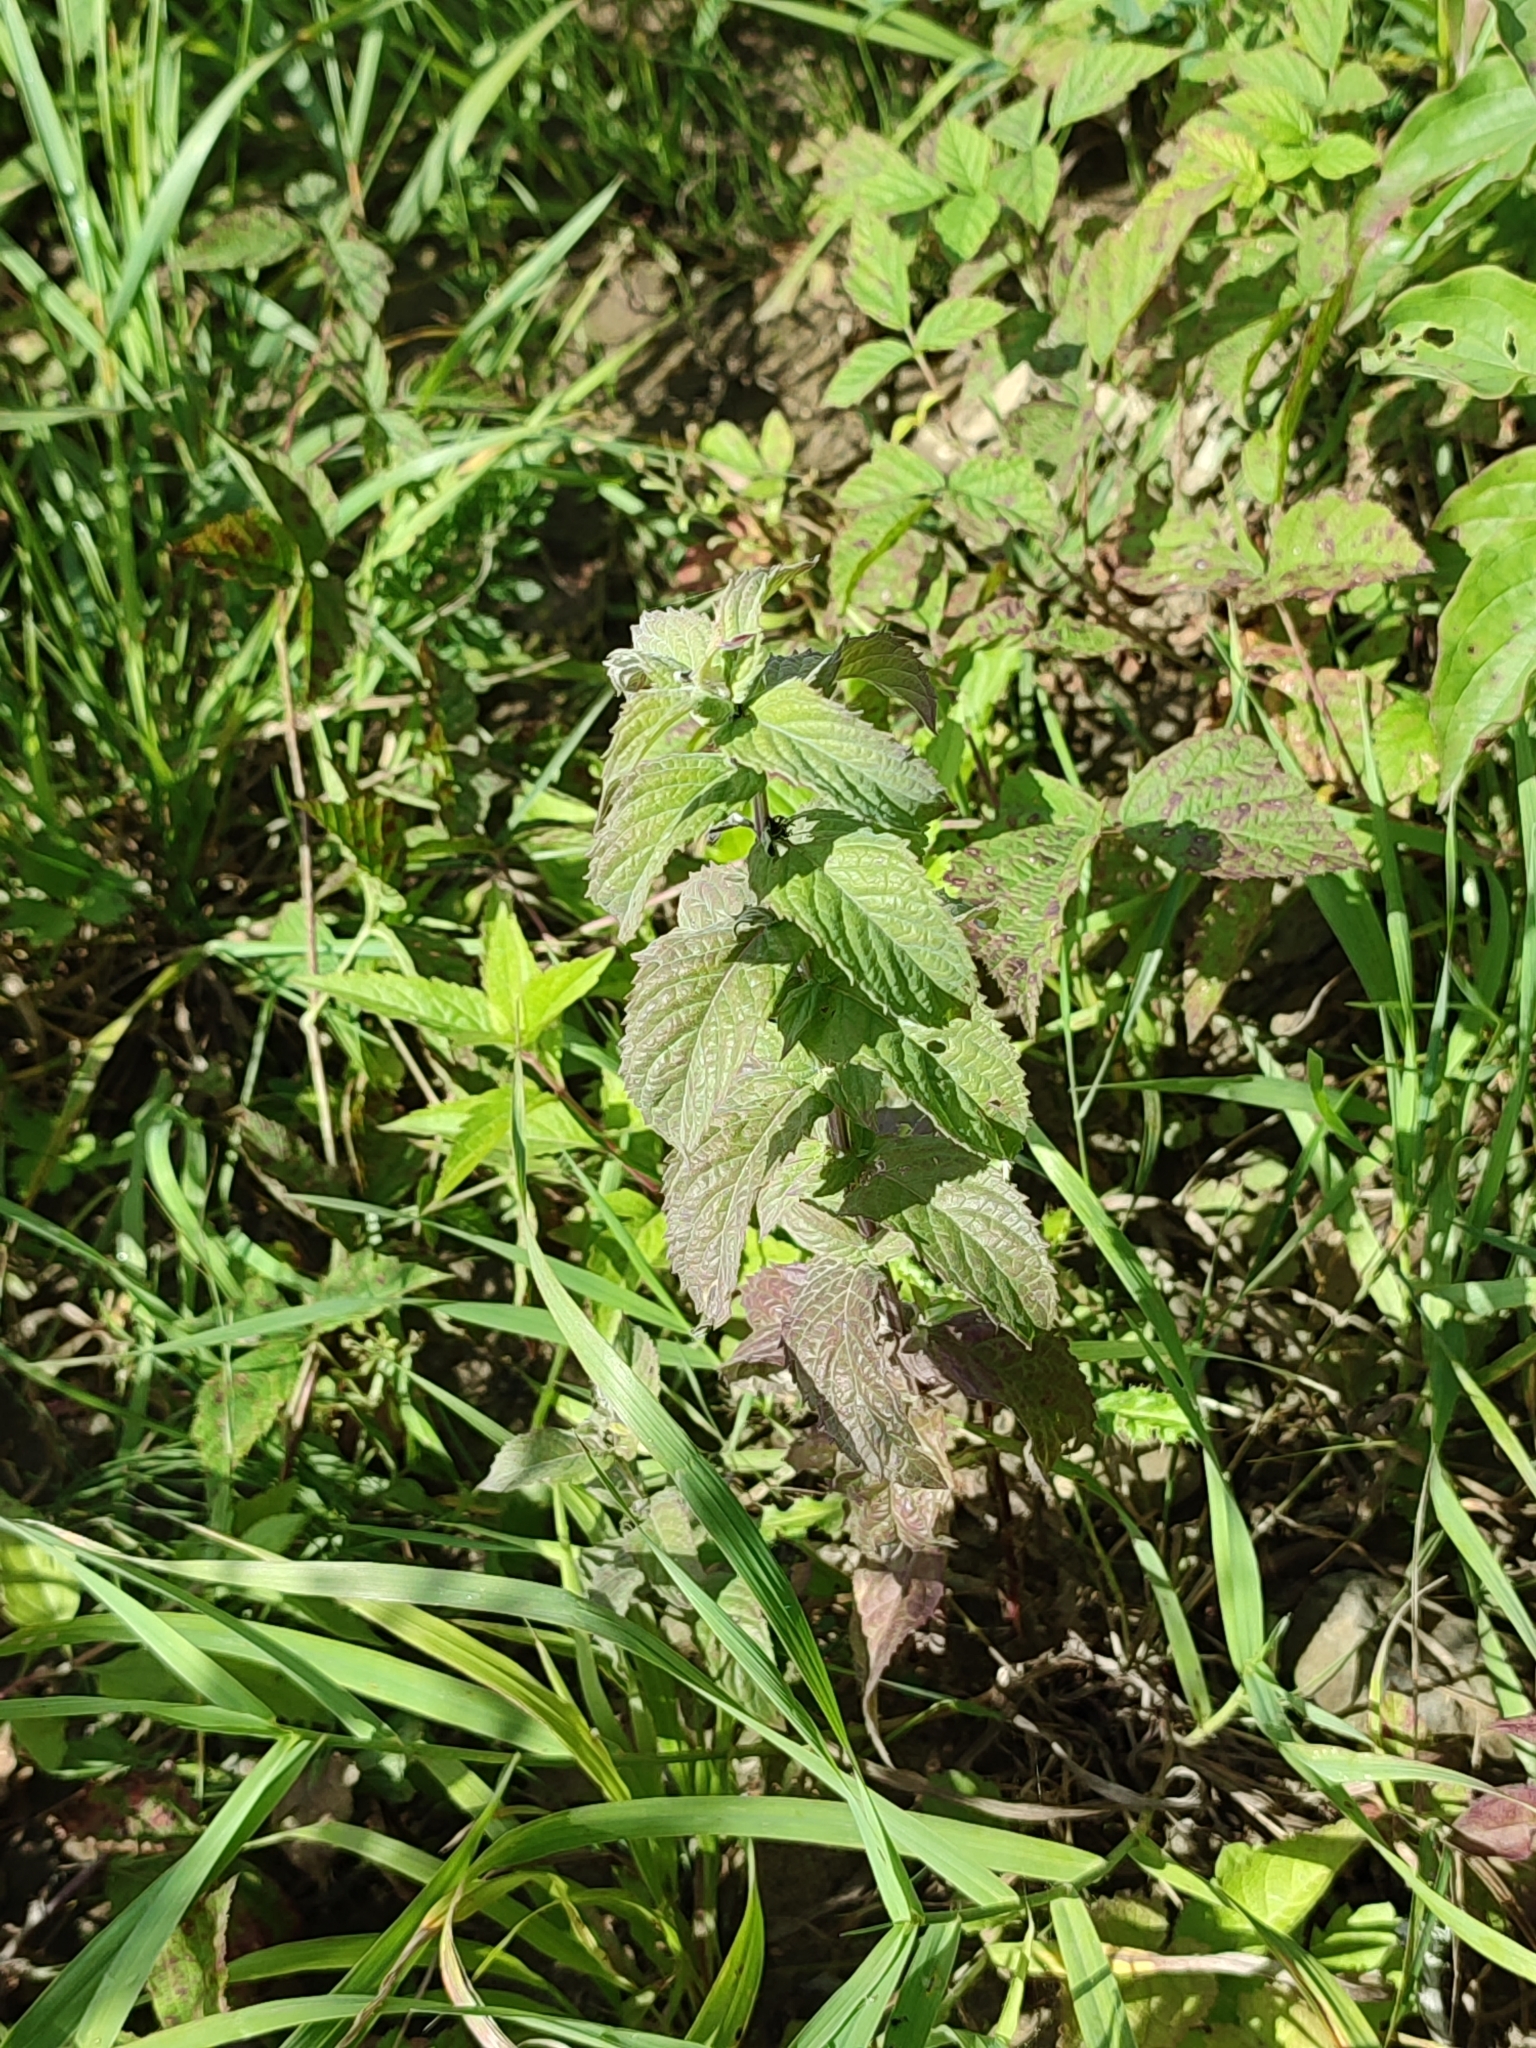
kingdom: Plantae
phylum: Tracheophyta
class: Magnoliopsida
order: Lamiales
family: Lamiaceae
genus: Mentha
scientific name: Mentha longifolia
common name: Horse mint
